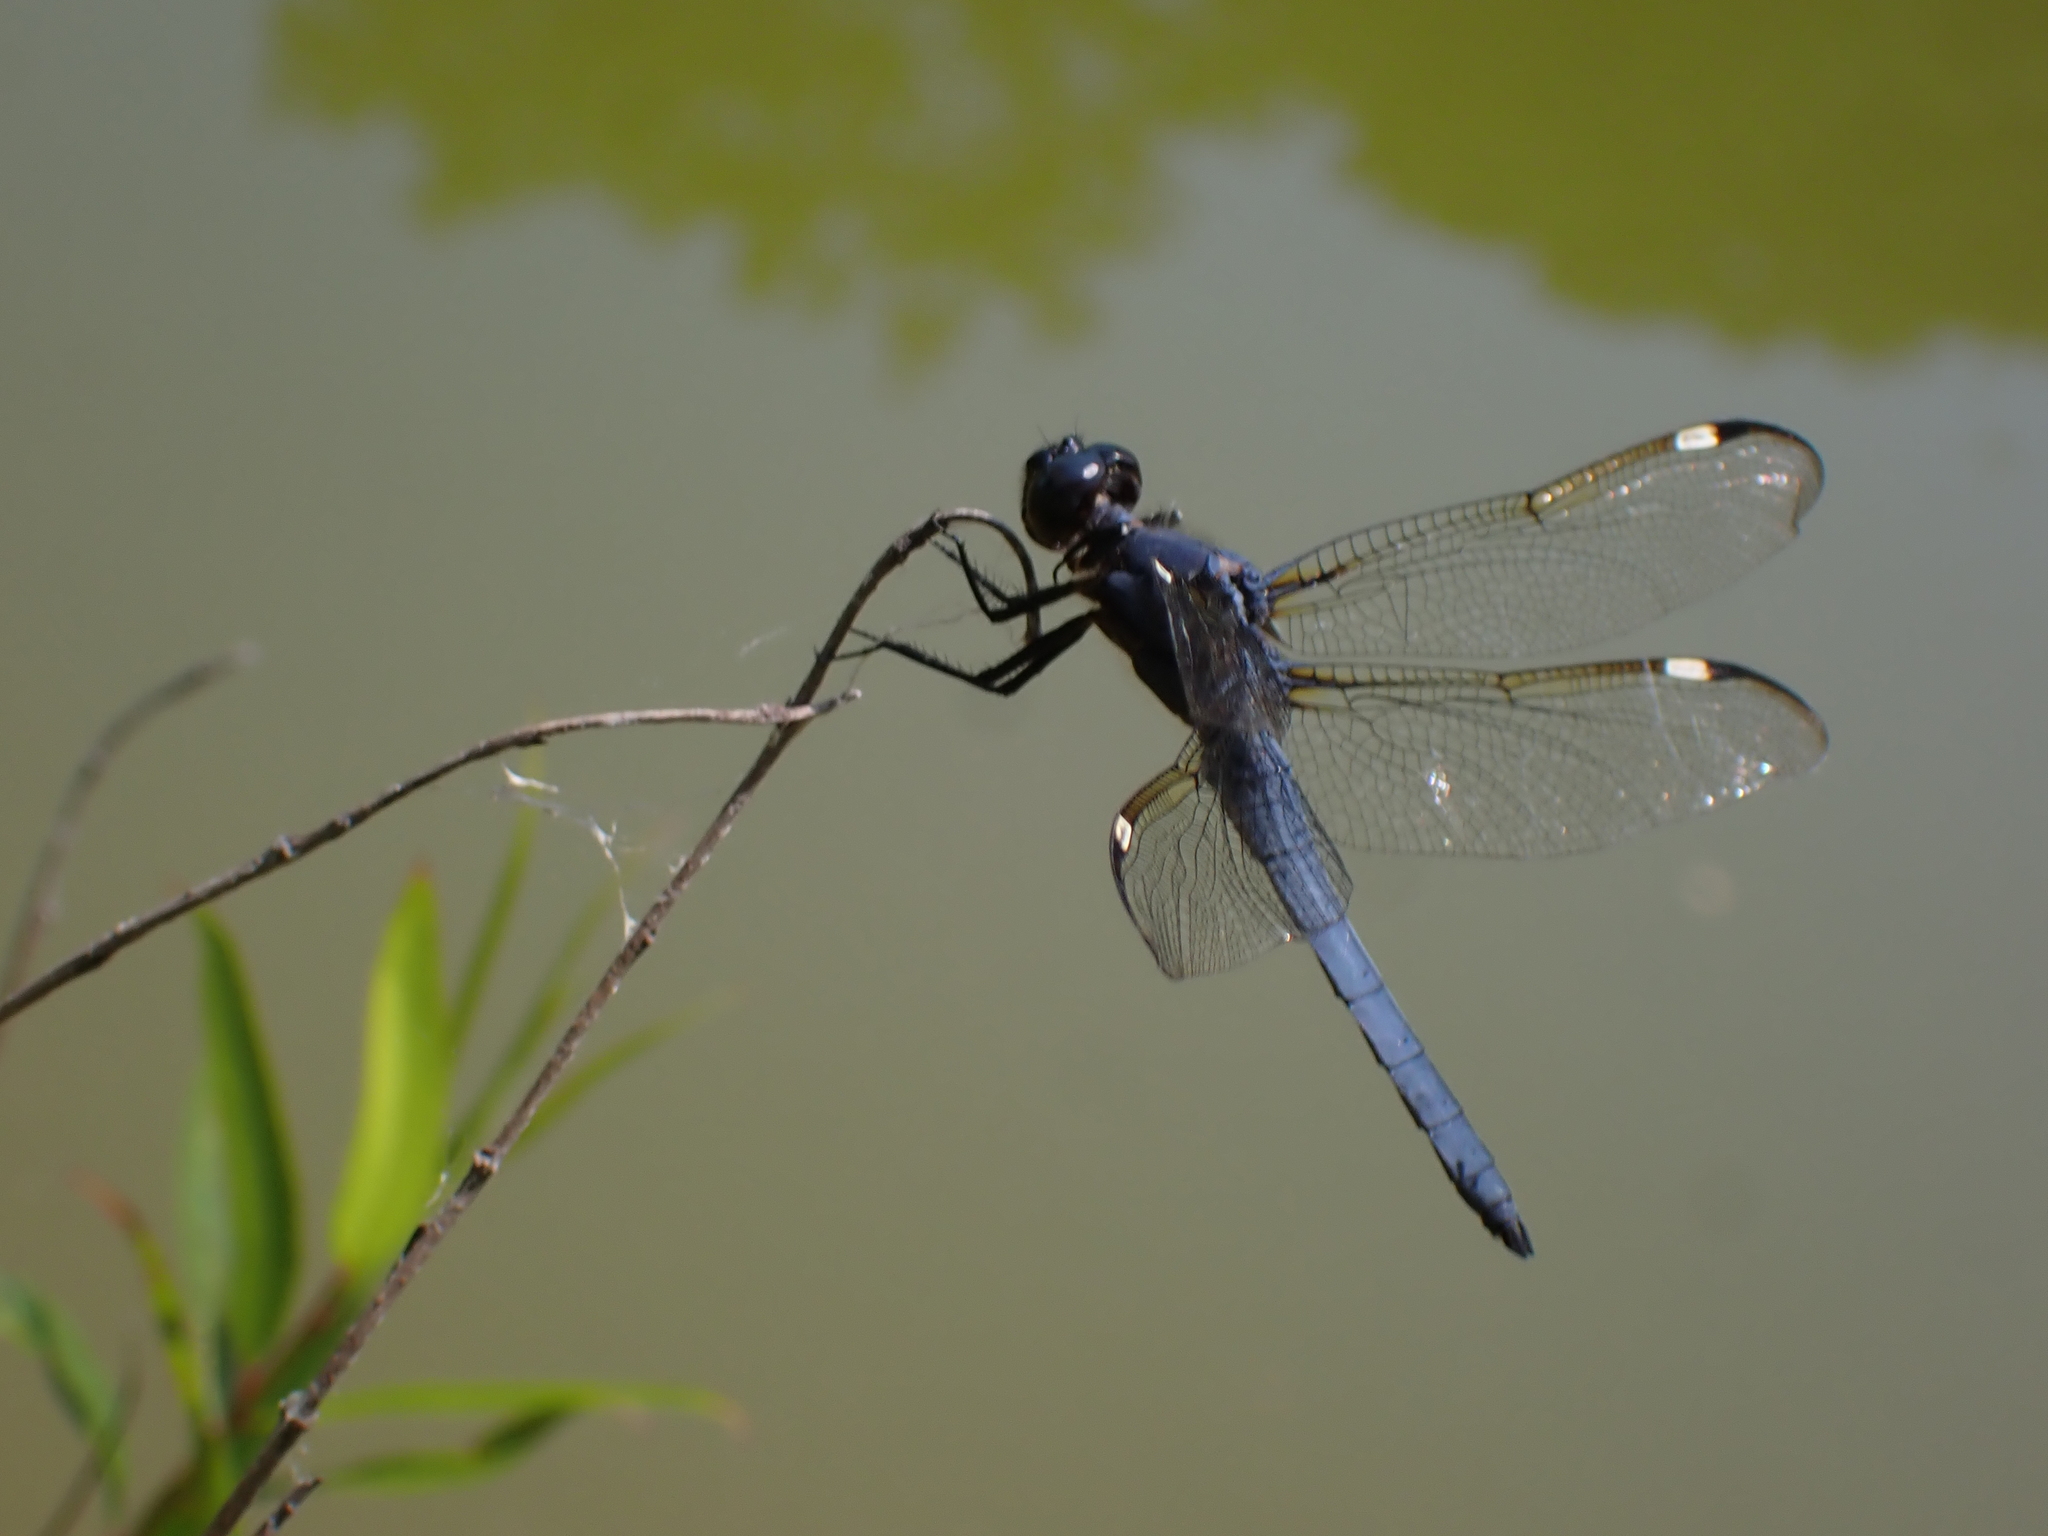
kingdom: Animalia
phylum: Arthropoda
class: Insecta
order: Odonata
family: Libellulidae
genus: Libellula
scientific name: Libellula cyanea
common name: Spangled skimmer
